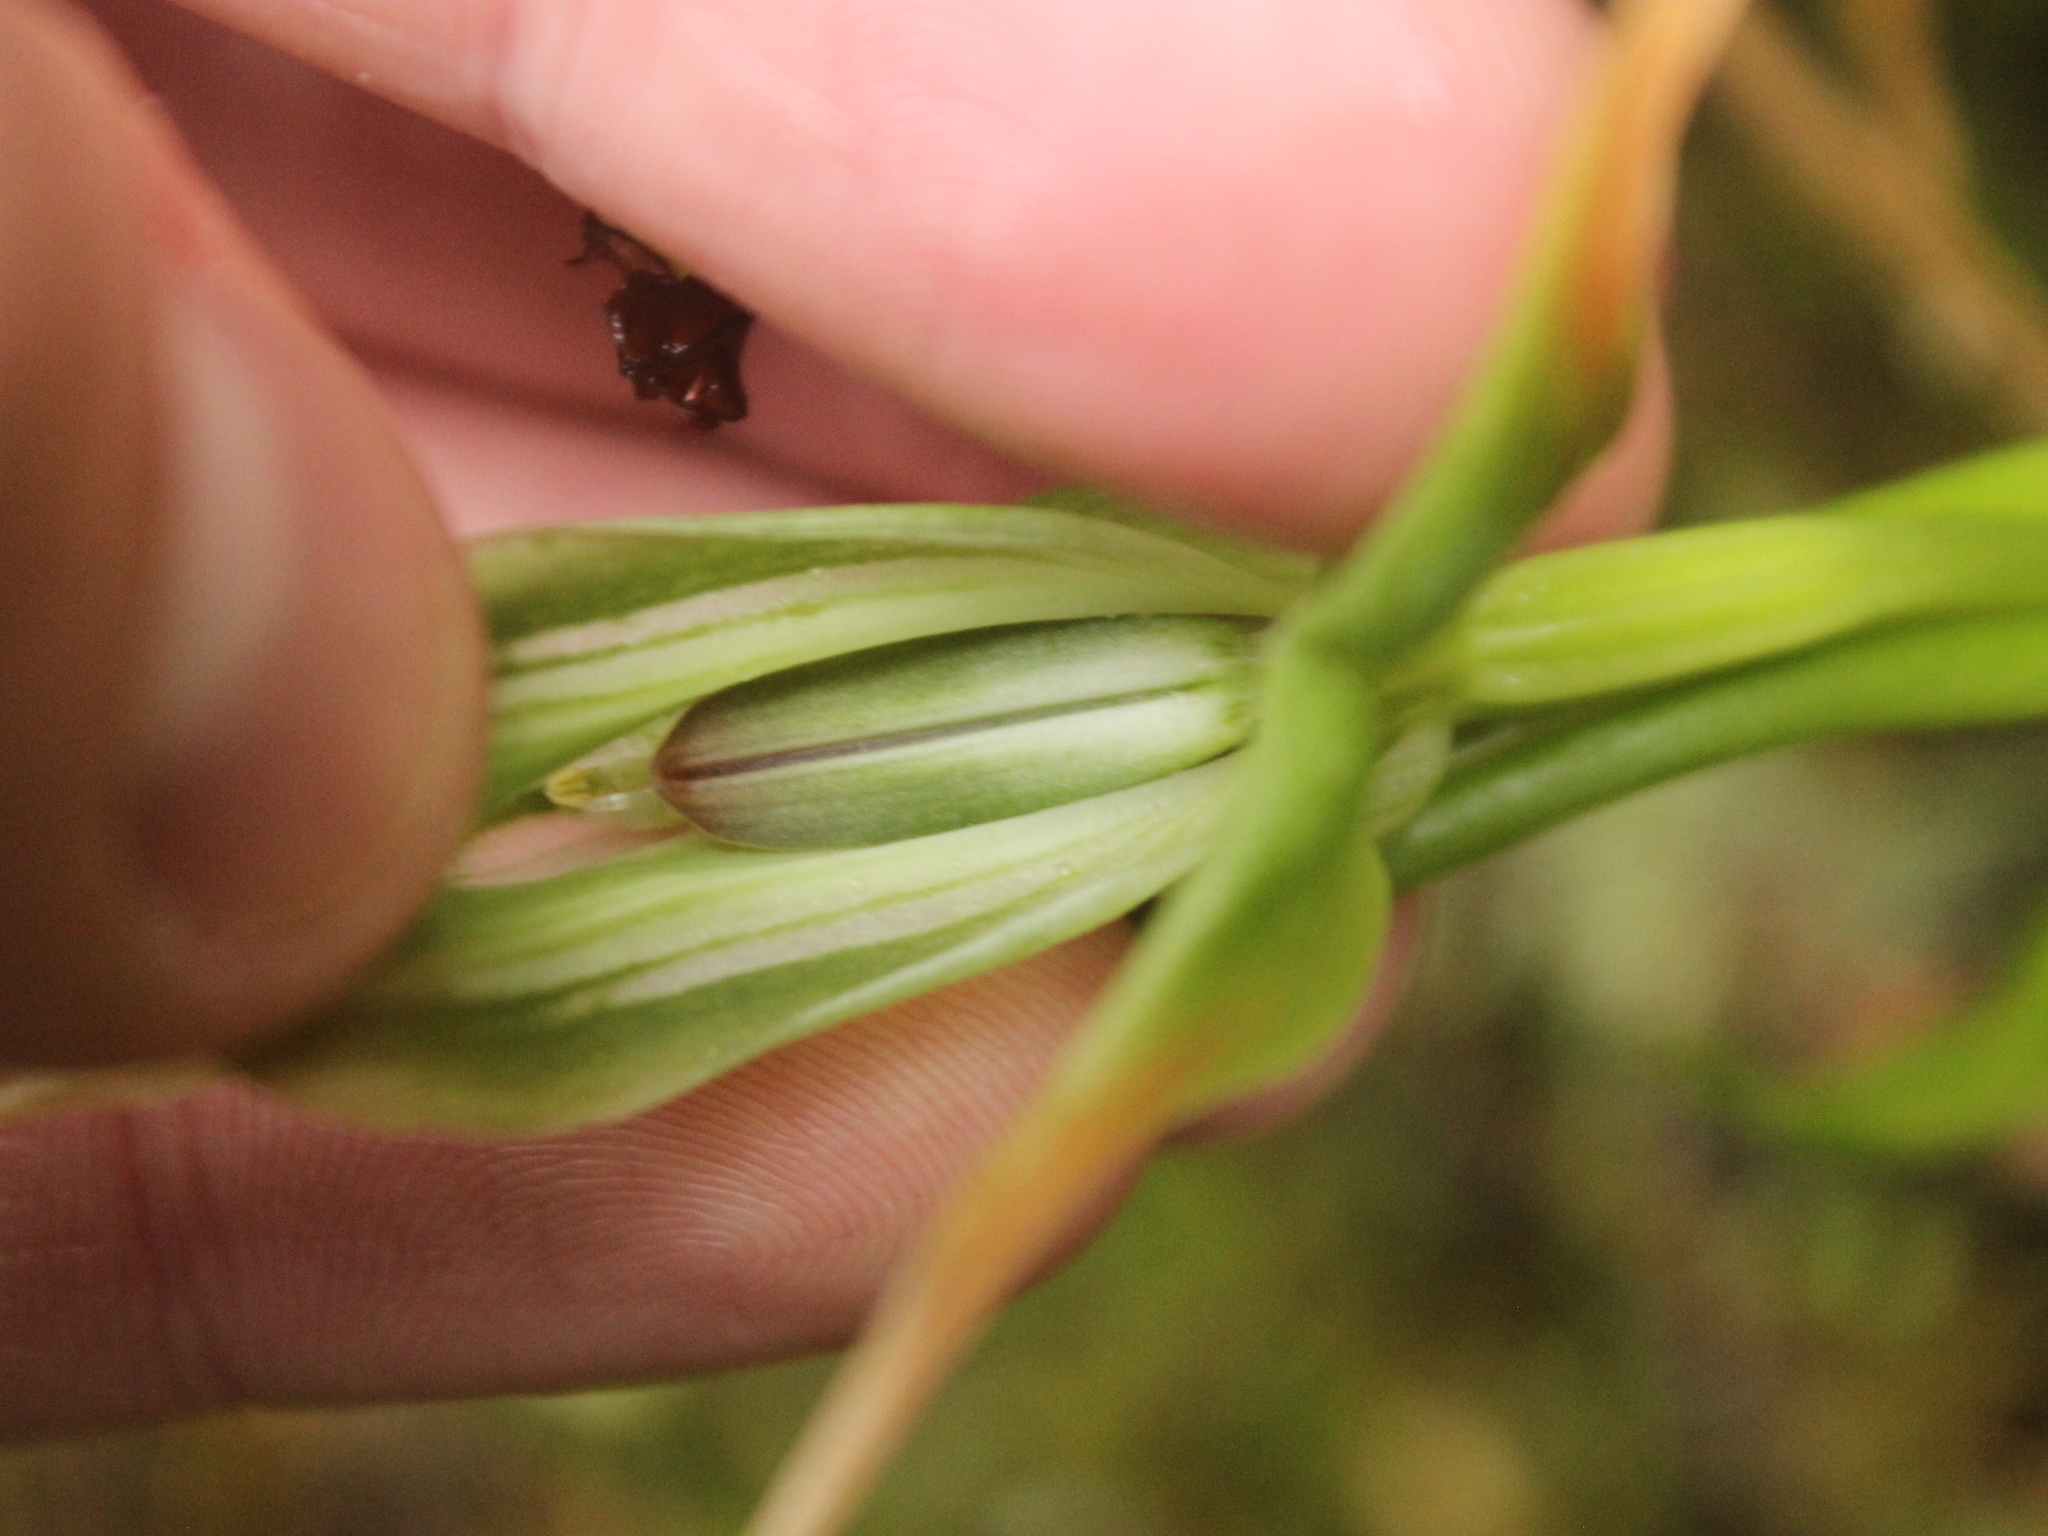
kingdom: Plantae
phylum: Tracheophyta
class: Liliopsida
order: Asparagales
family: Orchidaceae
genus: Pterostylis
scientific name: Pterostylis banksii
